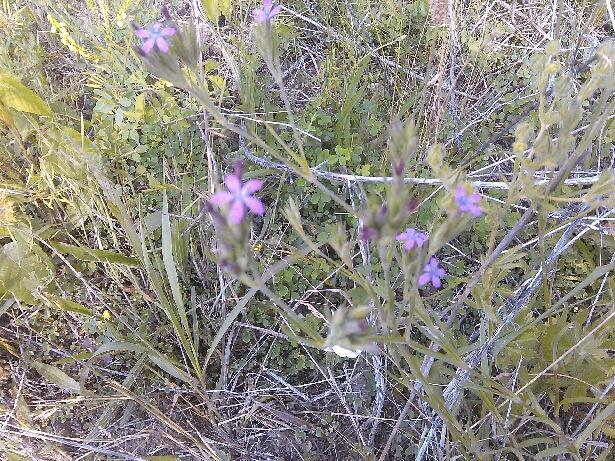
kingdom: Plantae
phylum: Tracheophyta
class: Magnoliopsida
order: Caryophyllales
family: Caryophyllaceae
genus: Dianthus
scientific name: Dianthus armeria
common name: Deptford pink
